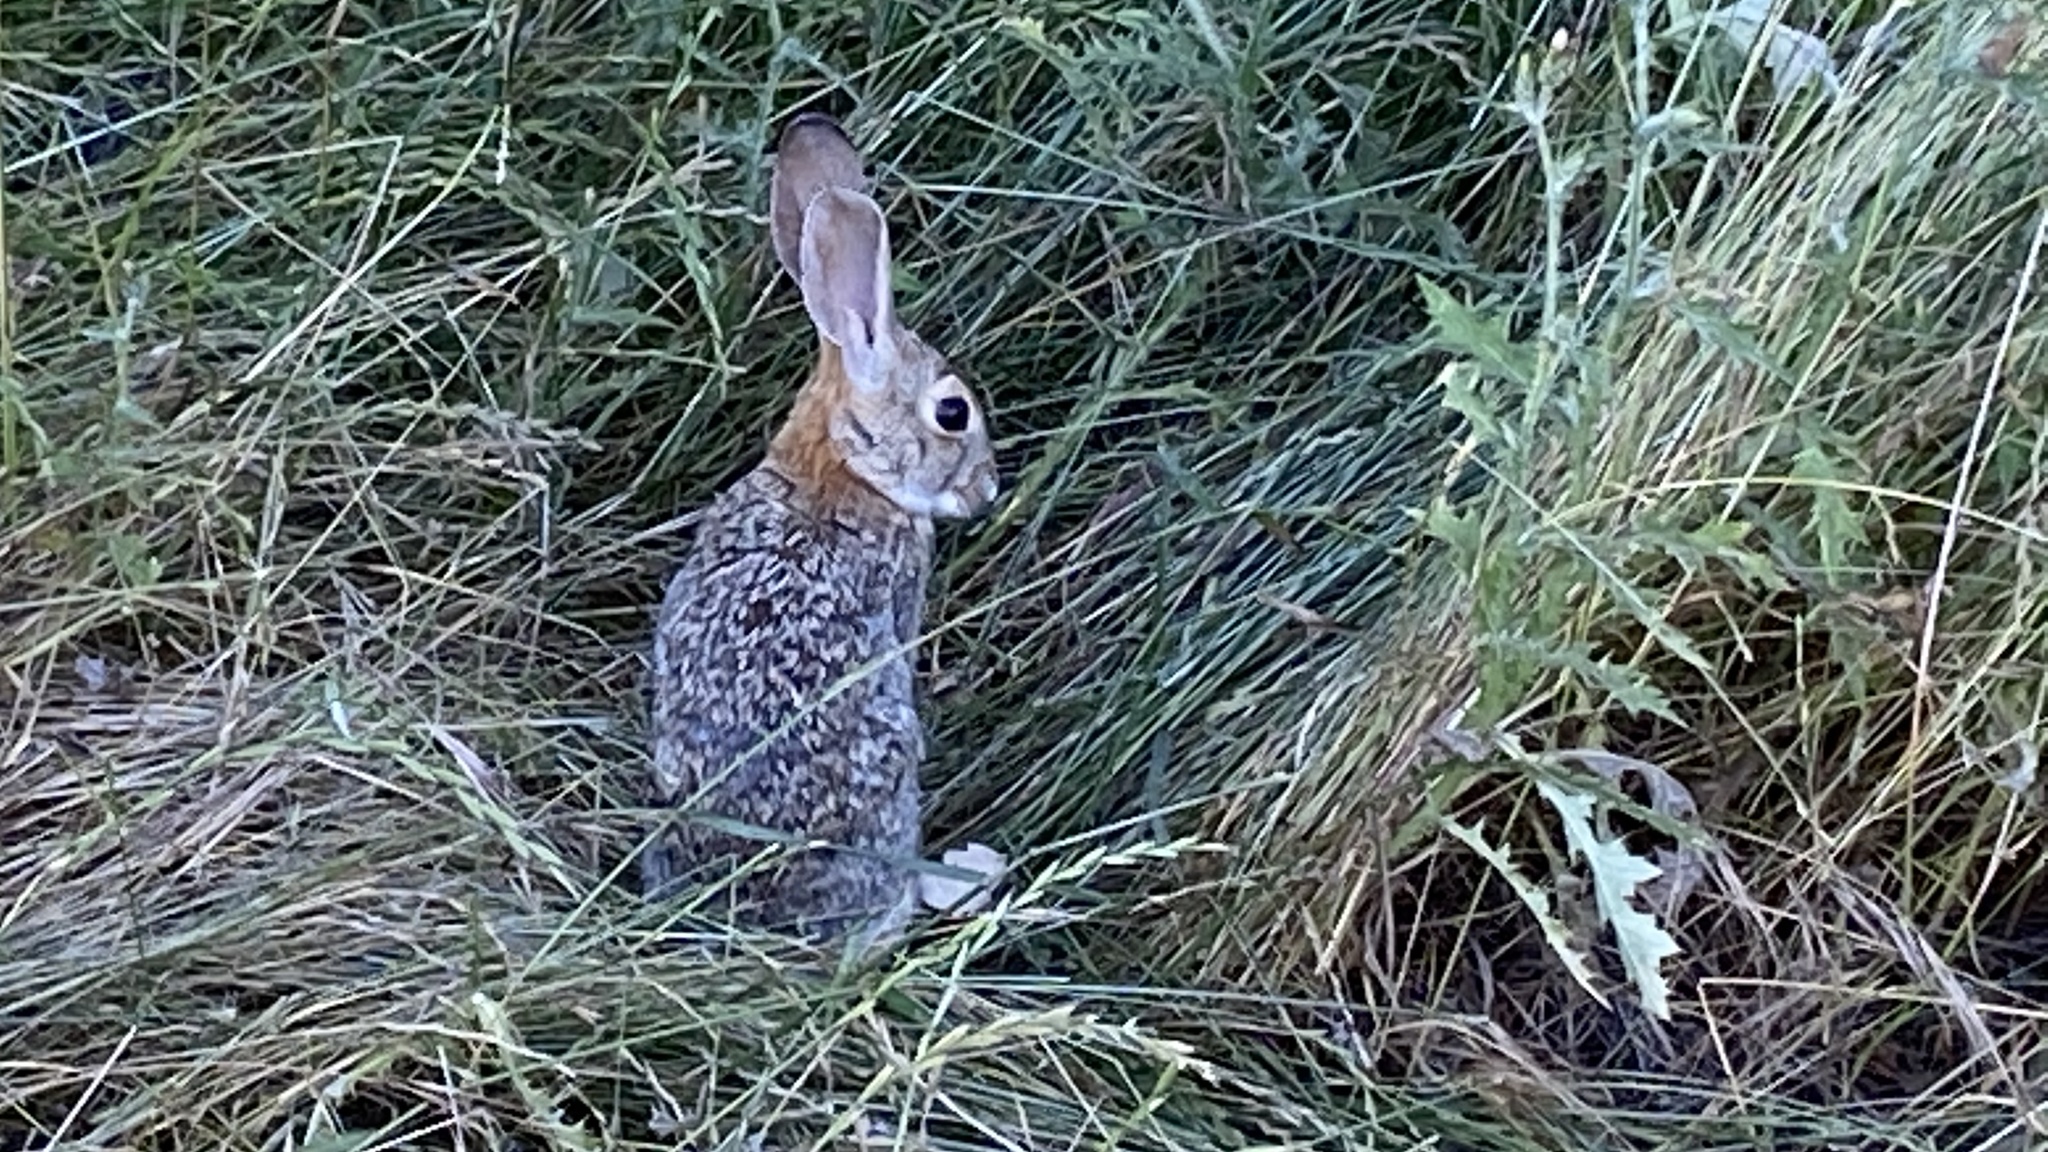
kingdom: Animalia
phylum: Chordata
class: Mammalia
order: Lagomorpha
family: Leporidae
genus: Sylvilagus
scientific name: Sylvilagus audubonii
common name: Desert cottontail
